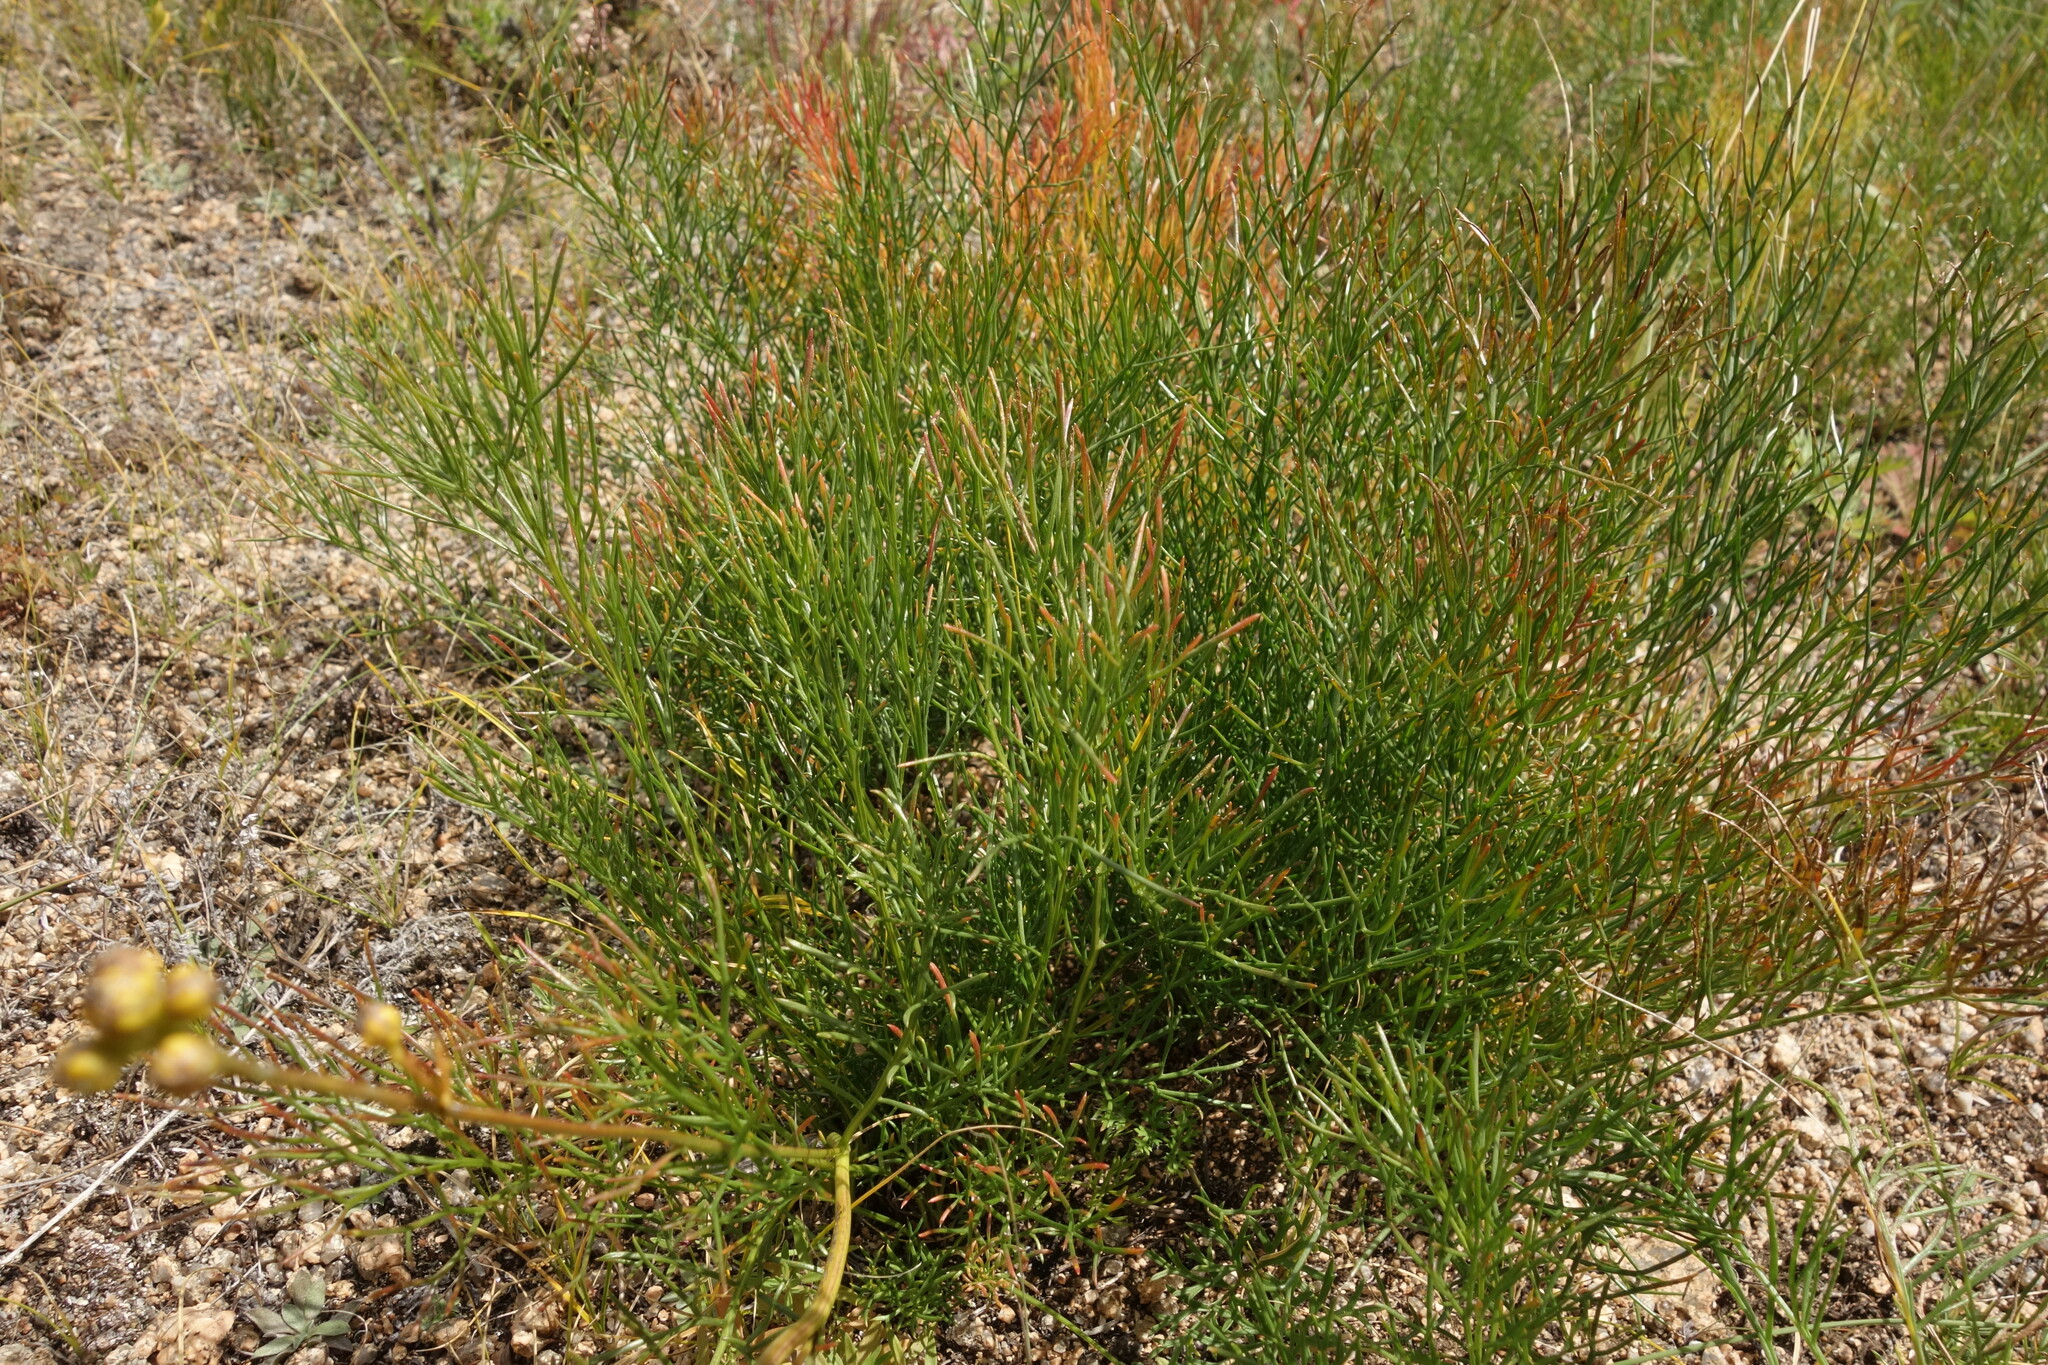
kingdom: Plantae
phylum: Tracheophyta
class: Magnoliopsida
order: Asterales
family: Asteraceae
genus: Filifolium
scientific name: Filifolium sibiricum
